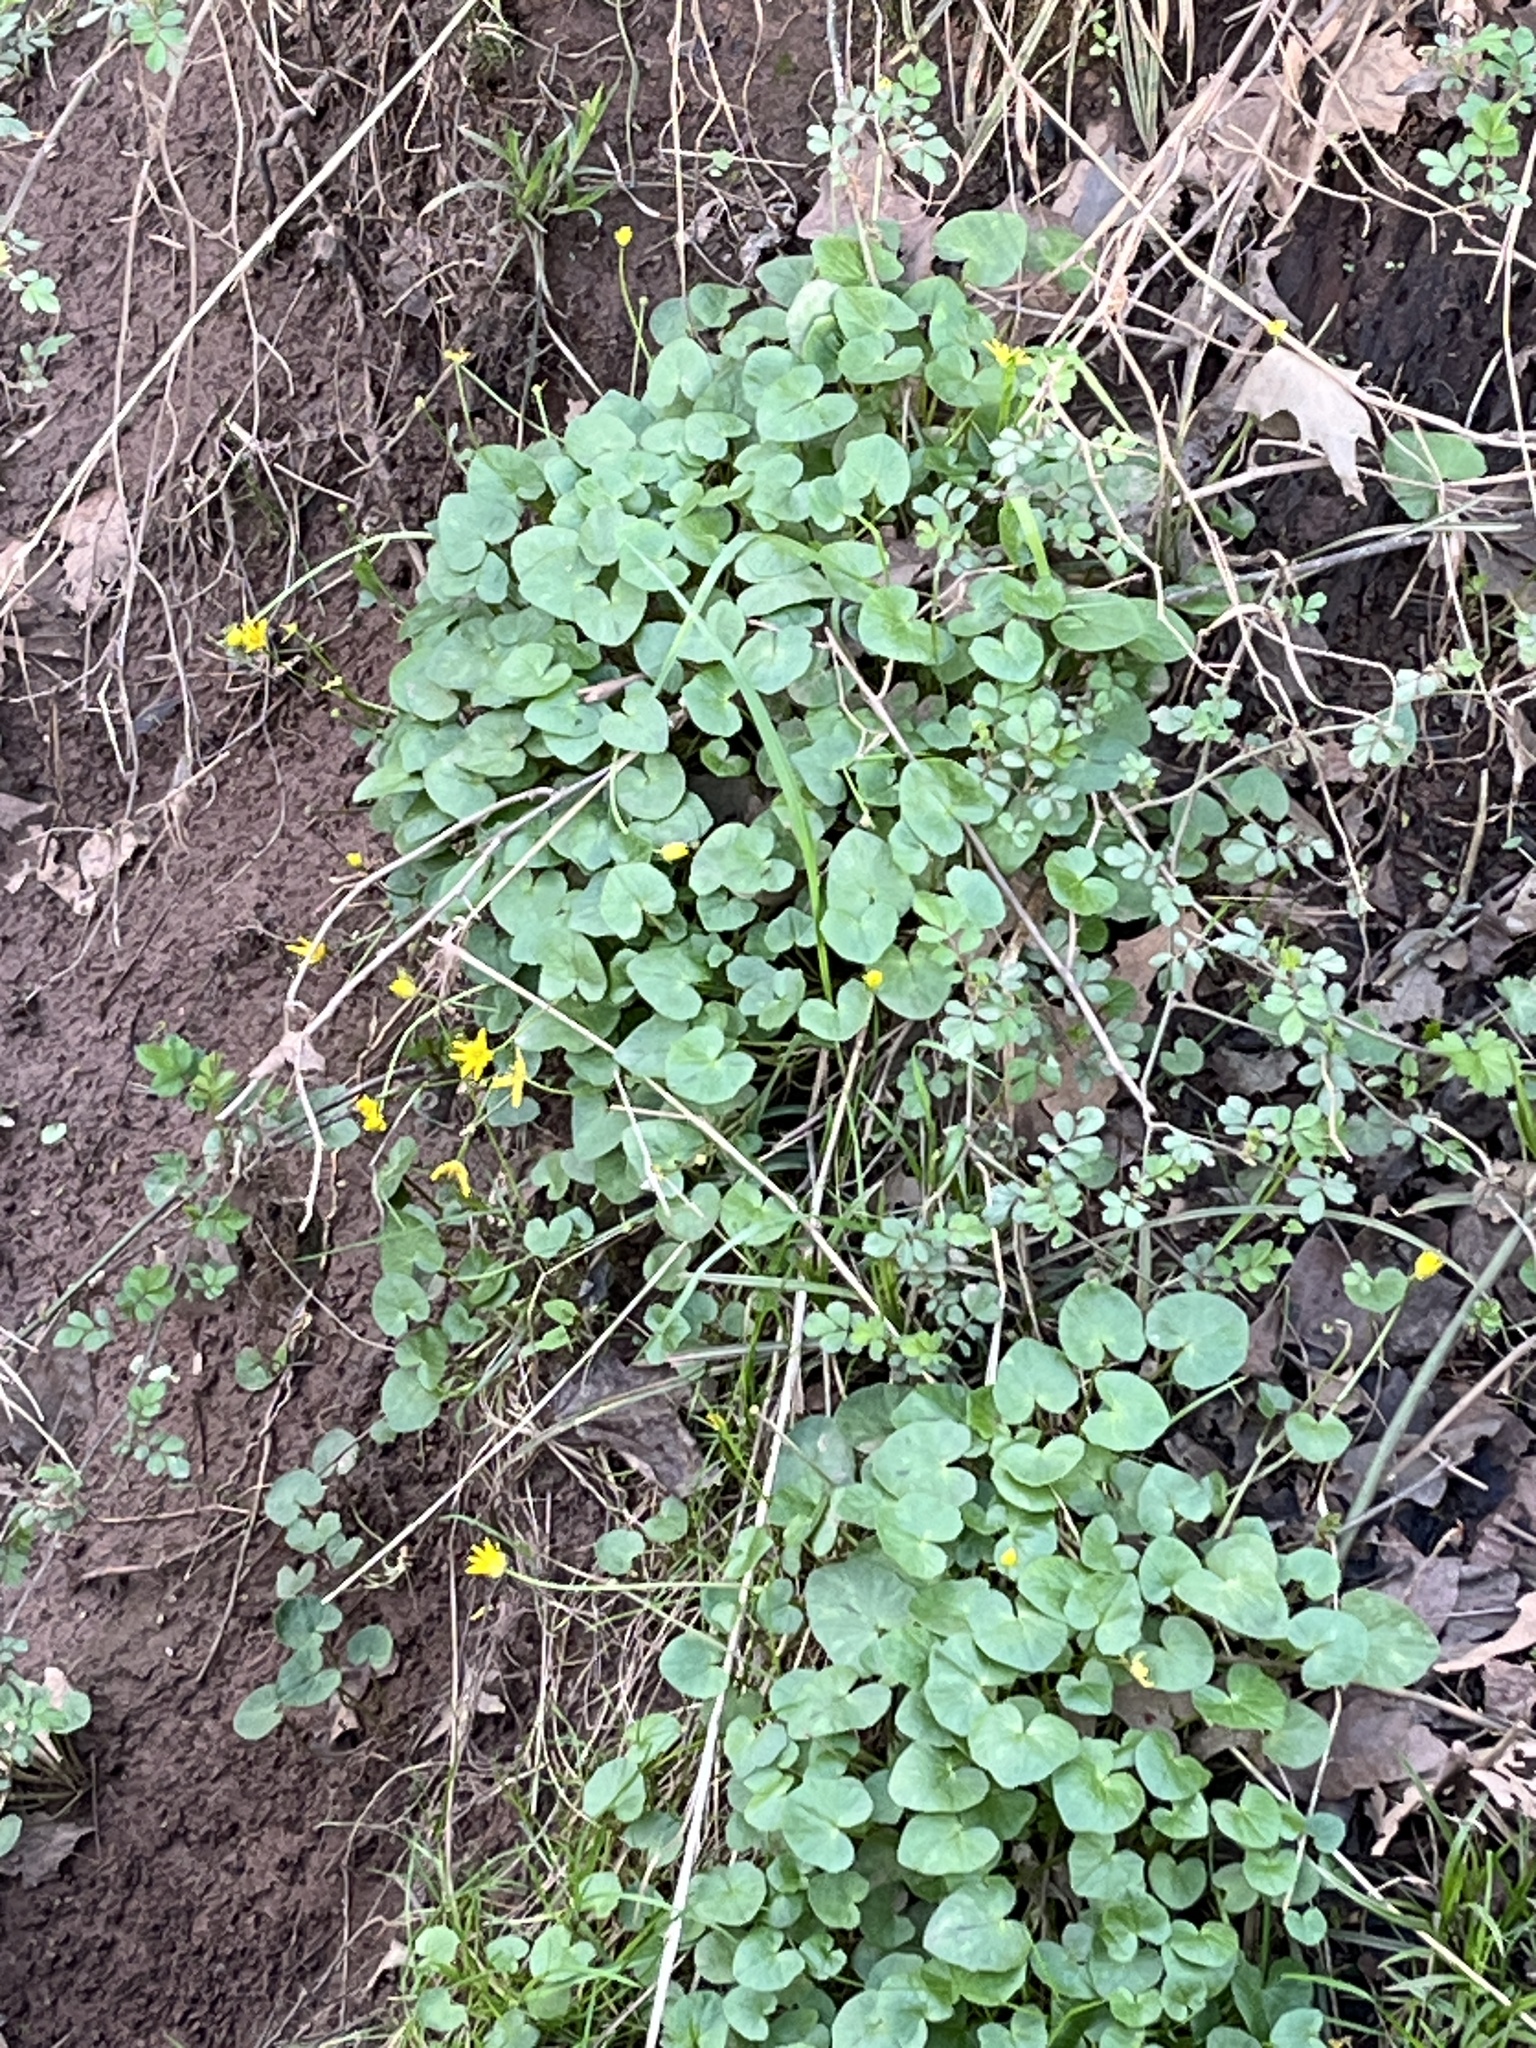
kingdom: Plantae
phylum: Tracheophyta
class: Magnoliopsida
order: Ranunculales
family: Ranunculaceae
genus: Ficaria
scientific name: Ficaria verna
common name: Lesser celandine
